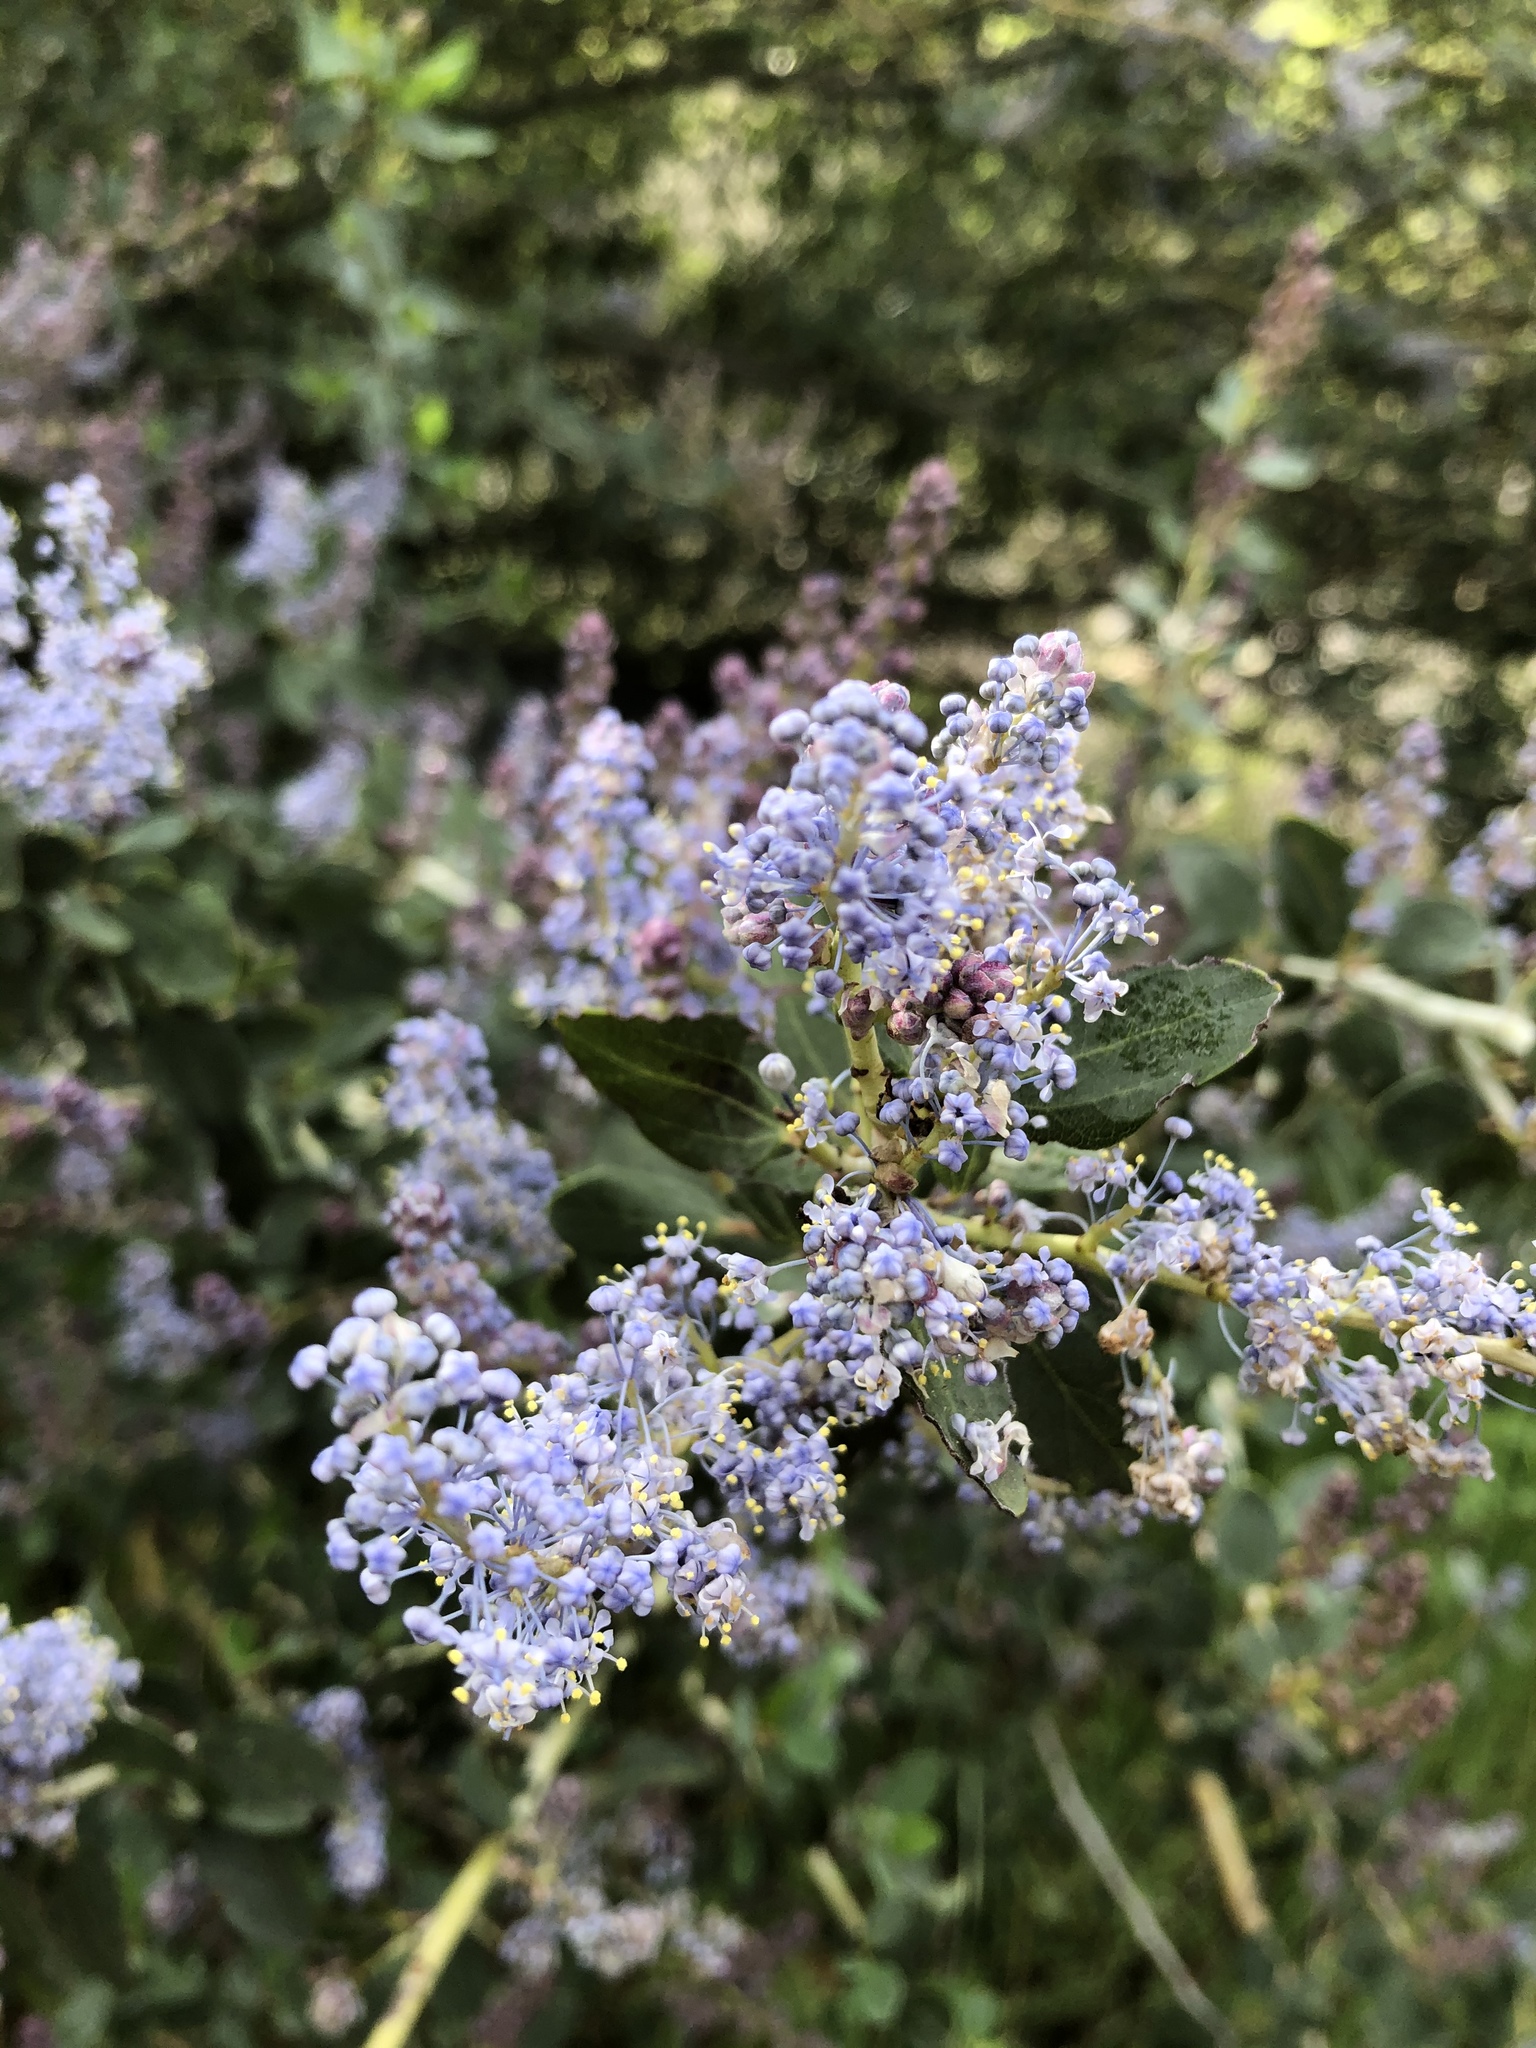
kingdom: Plantae
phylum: Tracheophyta
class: Magnoliopsida
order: Rosales
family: Rhamnaceae
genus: Ceanothus
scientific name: Ceanothus leucodermis
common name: Chaparral whitethorn
